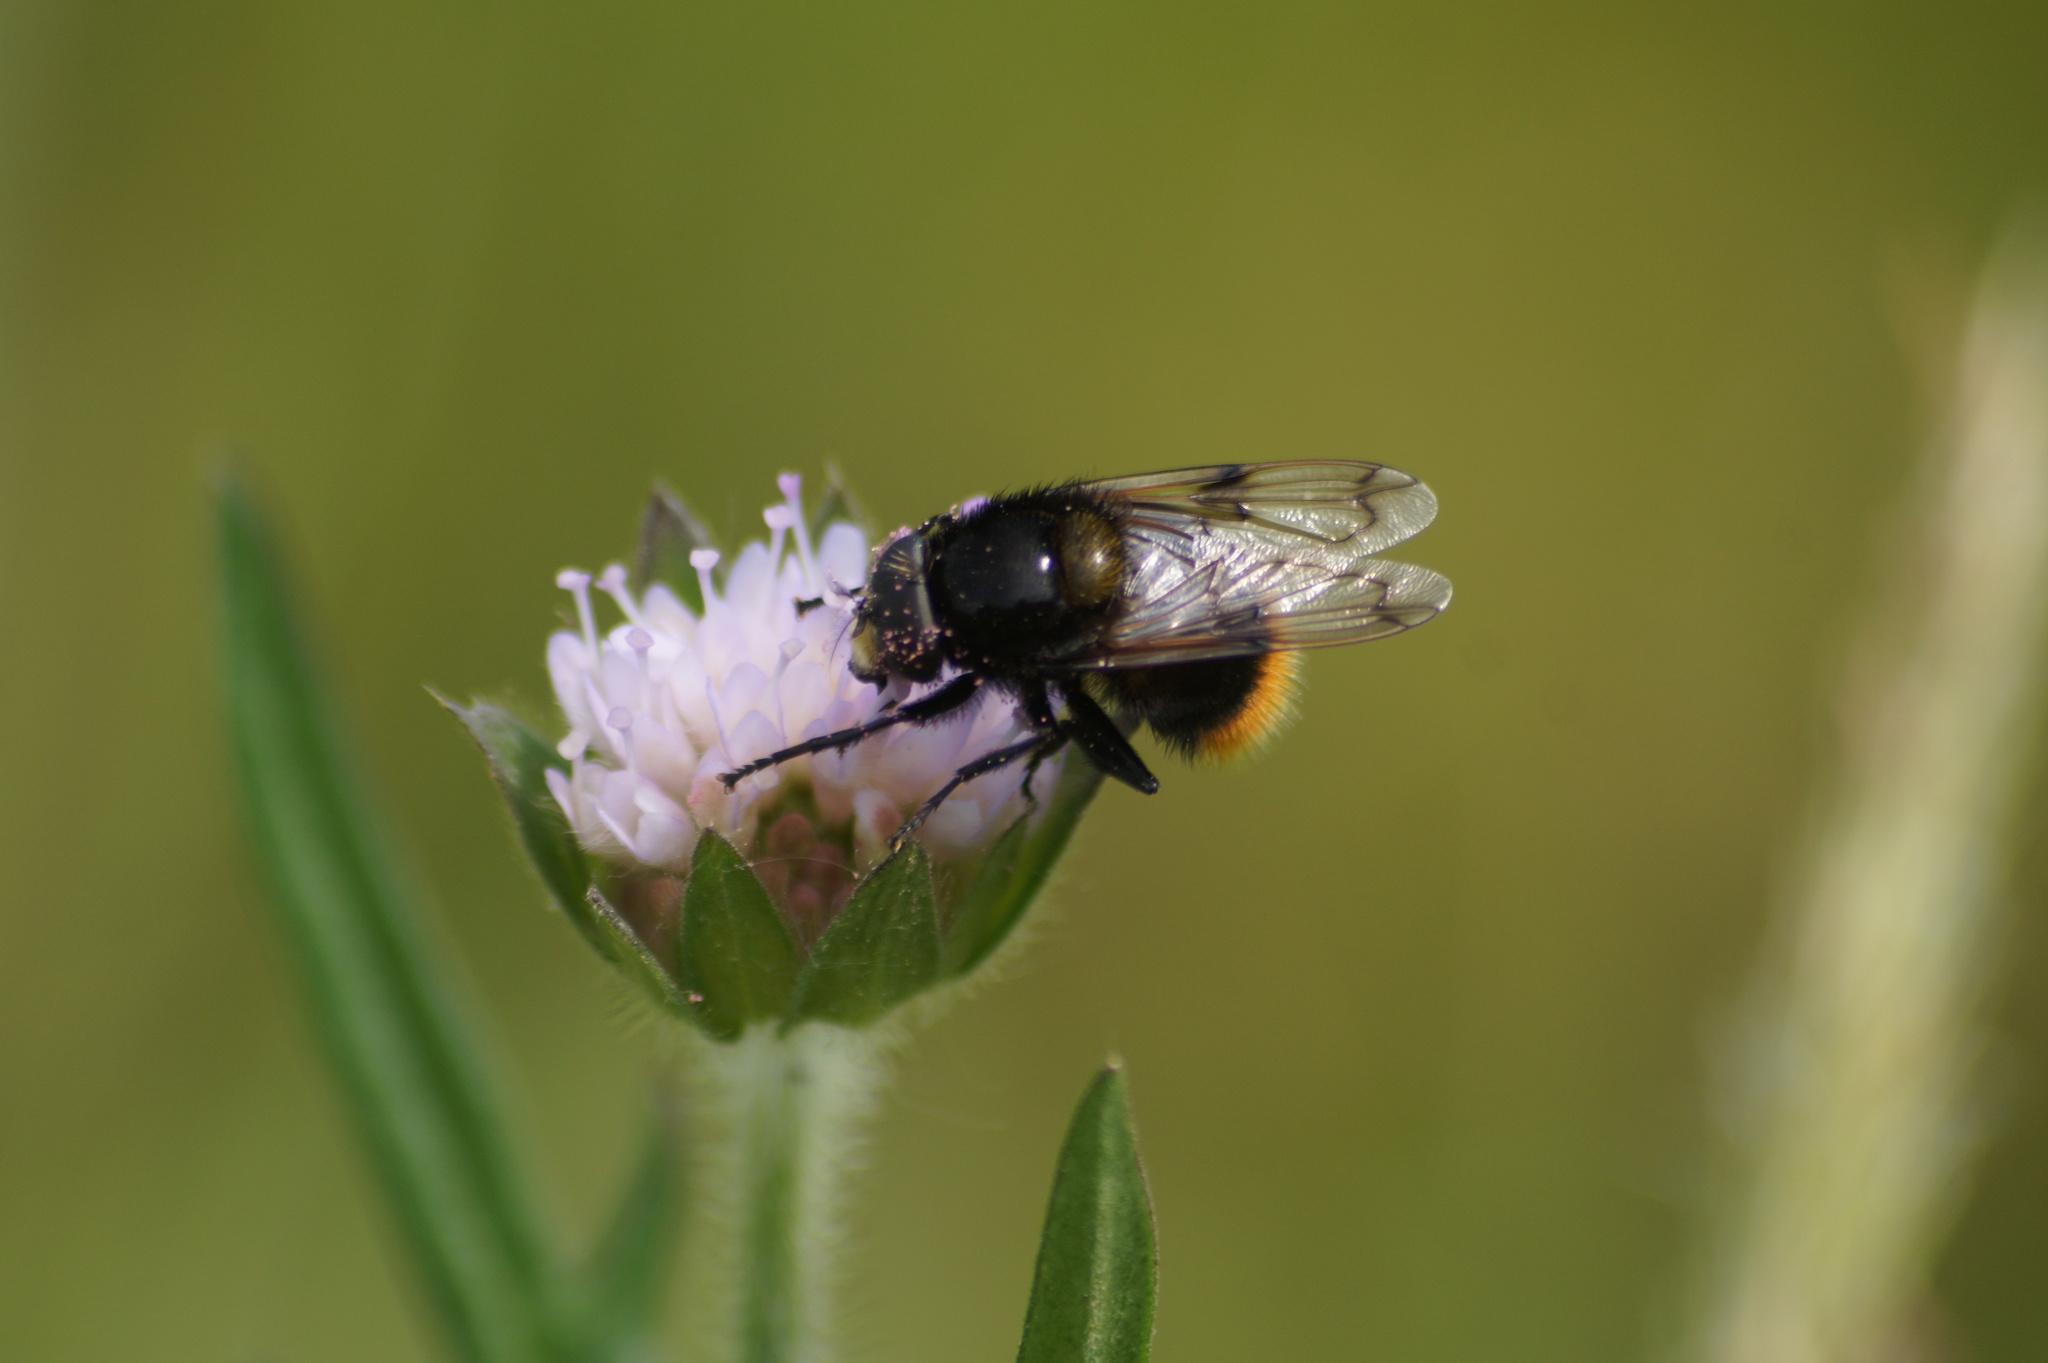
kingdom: Animalia
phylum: Arthropoda
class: Insecta
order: Diptera
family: Syrphidae
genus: Volucella
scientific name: Volucella bombylans
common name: Bumble bee hover fly
